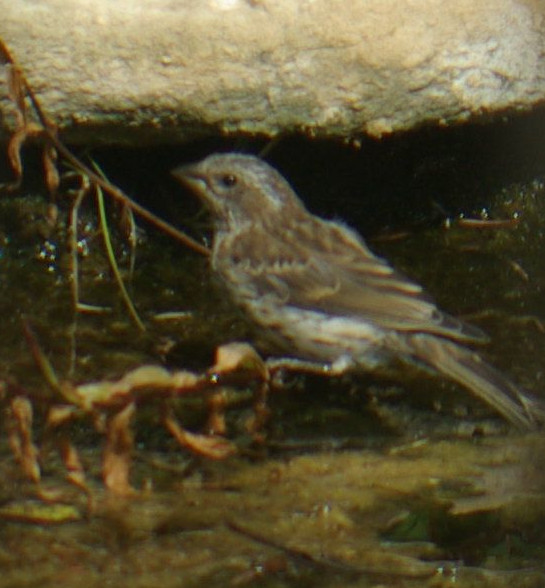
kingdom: Animalia
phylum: Chordata
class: Aves
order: Passeriformes
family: Fringillidae
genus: Haemorhous
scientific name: Haemorhous purpureus
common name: Purple finch
